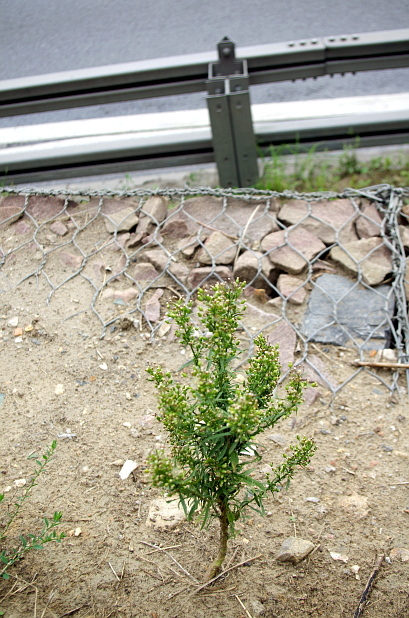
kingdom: Plantae
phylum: Tracheophyta
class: Magnoliopsida
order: Asterales
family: Asteraceae
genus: Erigeron
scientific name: Erigeron canadensis
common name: Canadian fleabane
